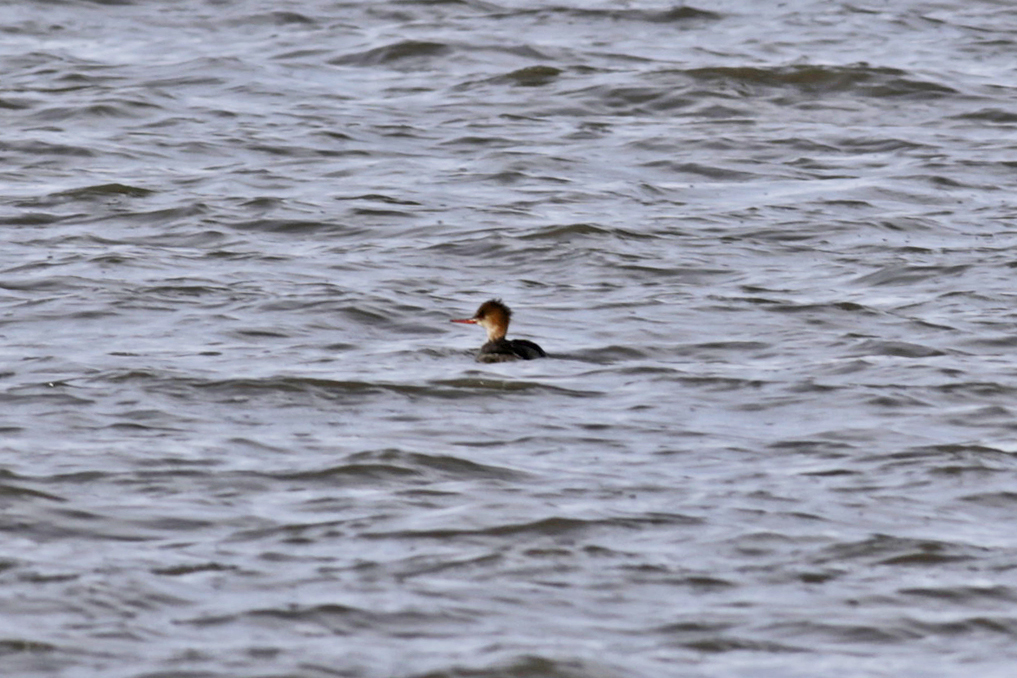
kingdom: Animalia
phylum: Chordata
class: Aves
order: Anseriformes
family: Anatidae
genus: Mergus
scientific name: Mergus serrator
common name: Red-breasted merganser
